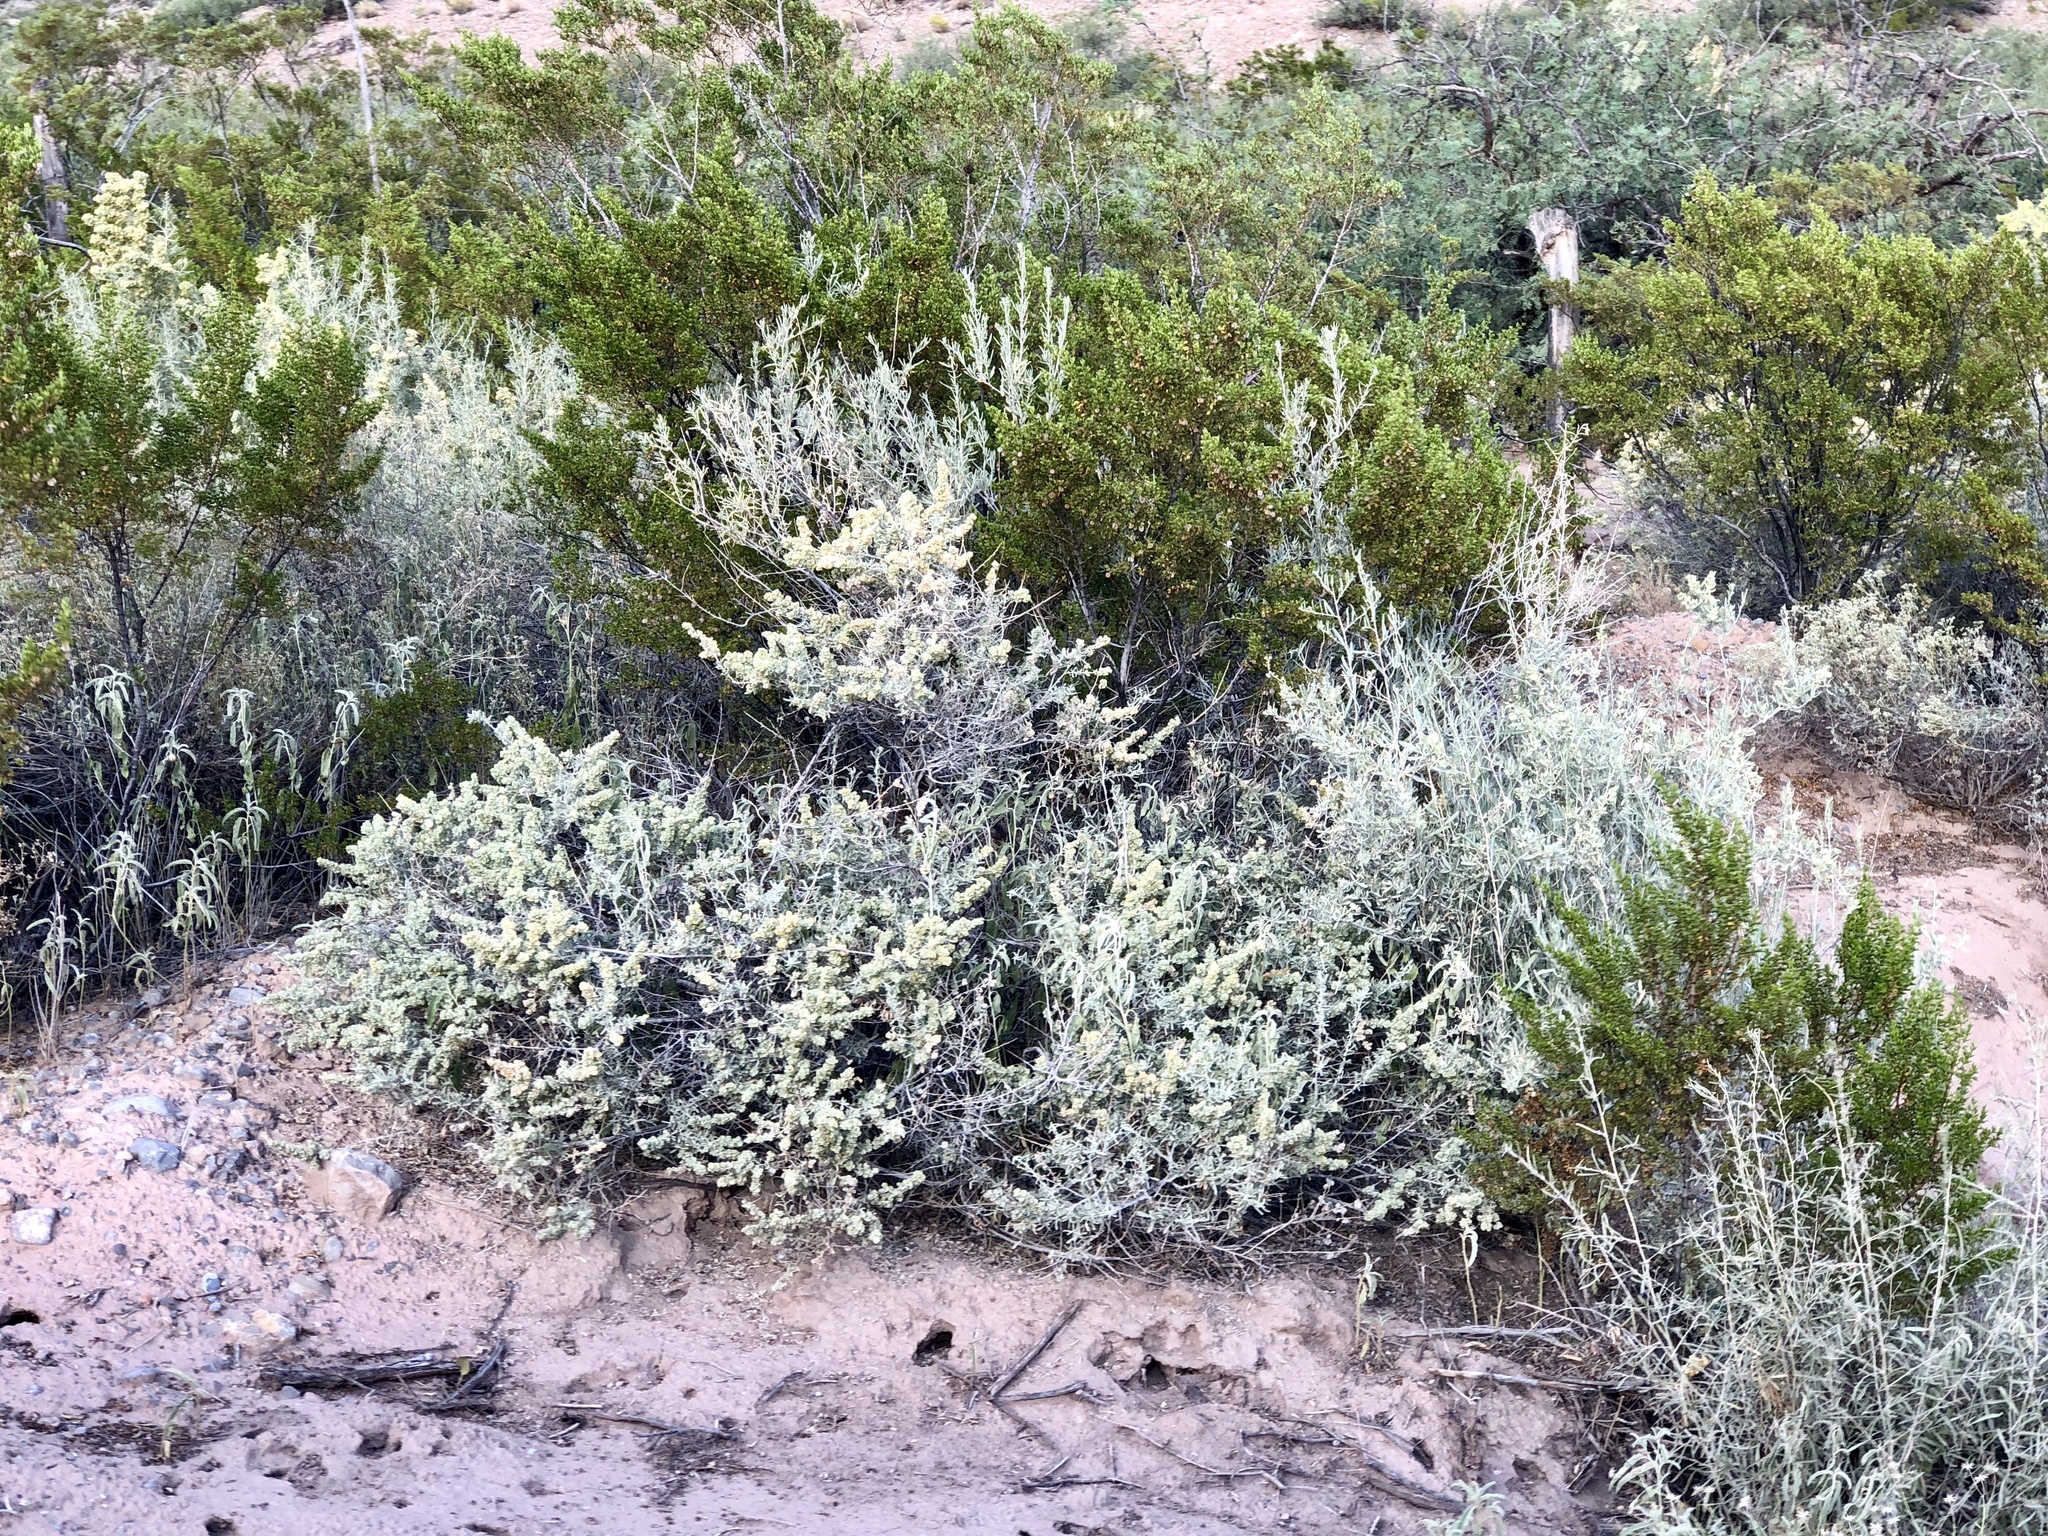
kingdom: Plantae
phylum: Tracheophyta
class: Magnoliopsida
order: Caryophyllales
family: Amaranthaceae
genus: Atriplex
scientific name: Atriplex canescens
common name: Four-wing saltbush
